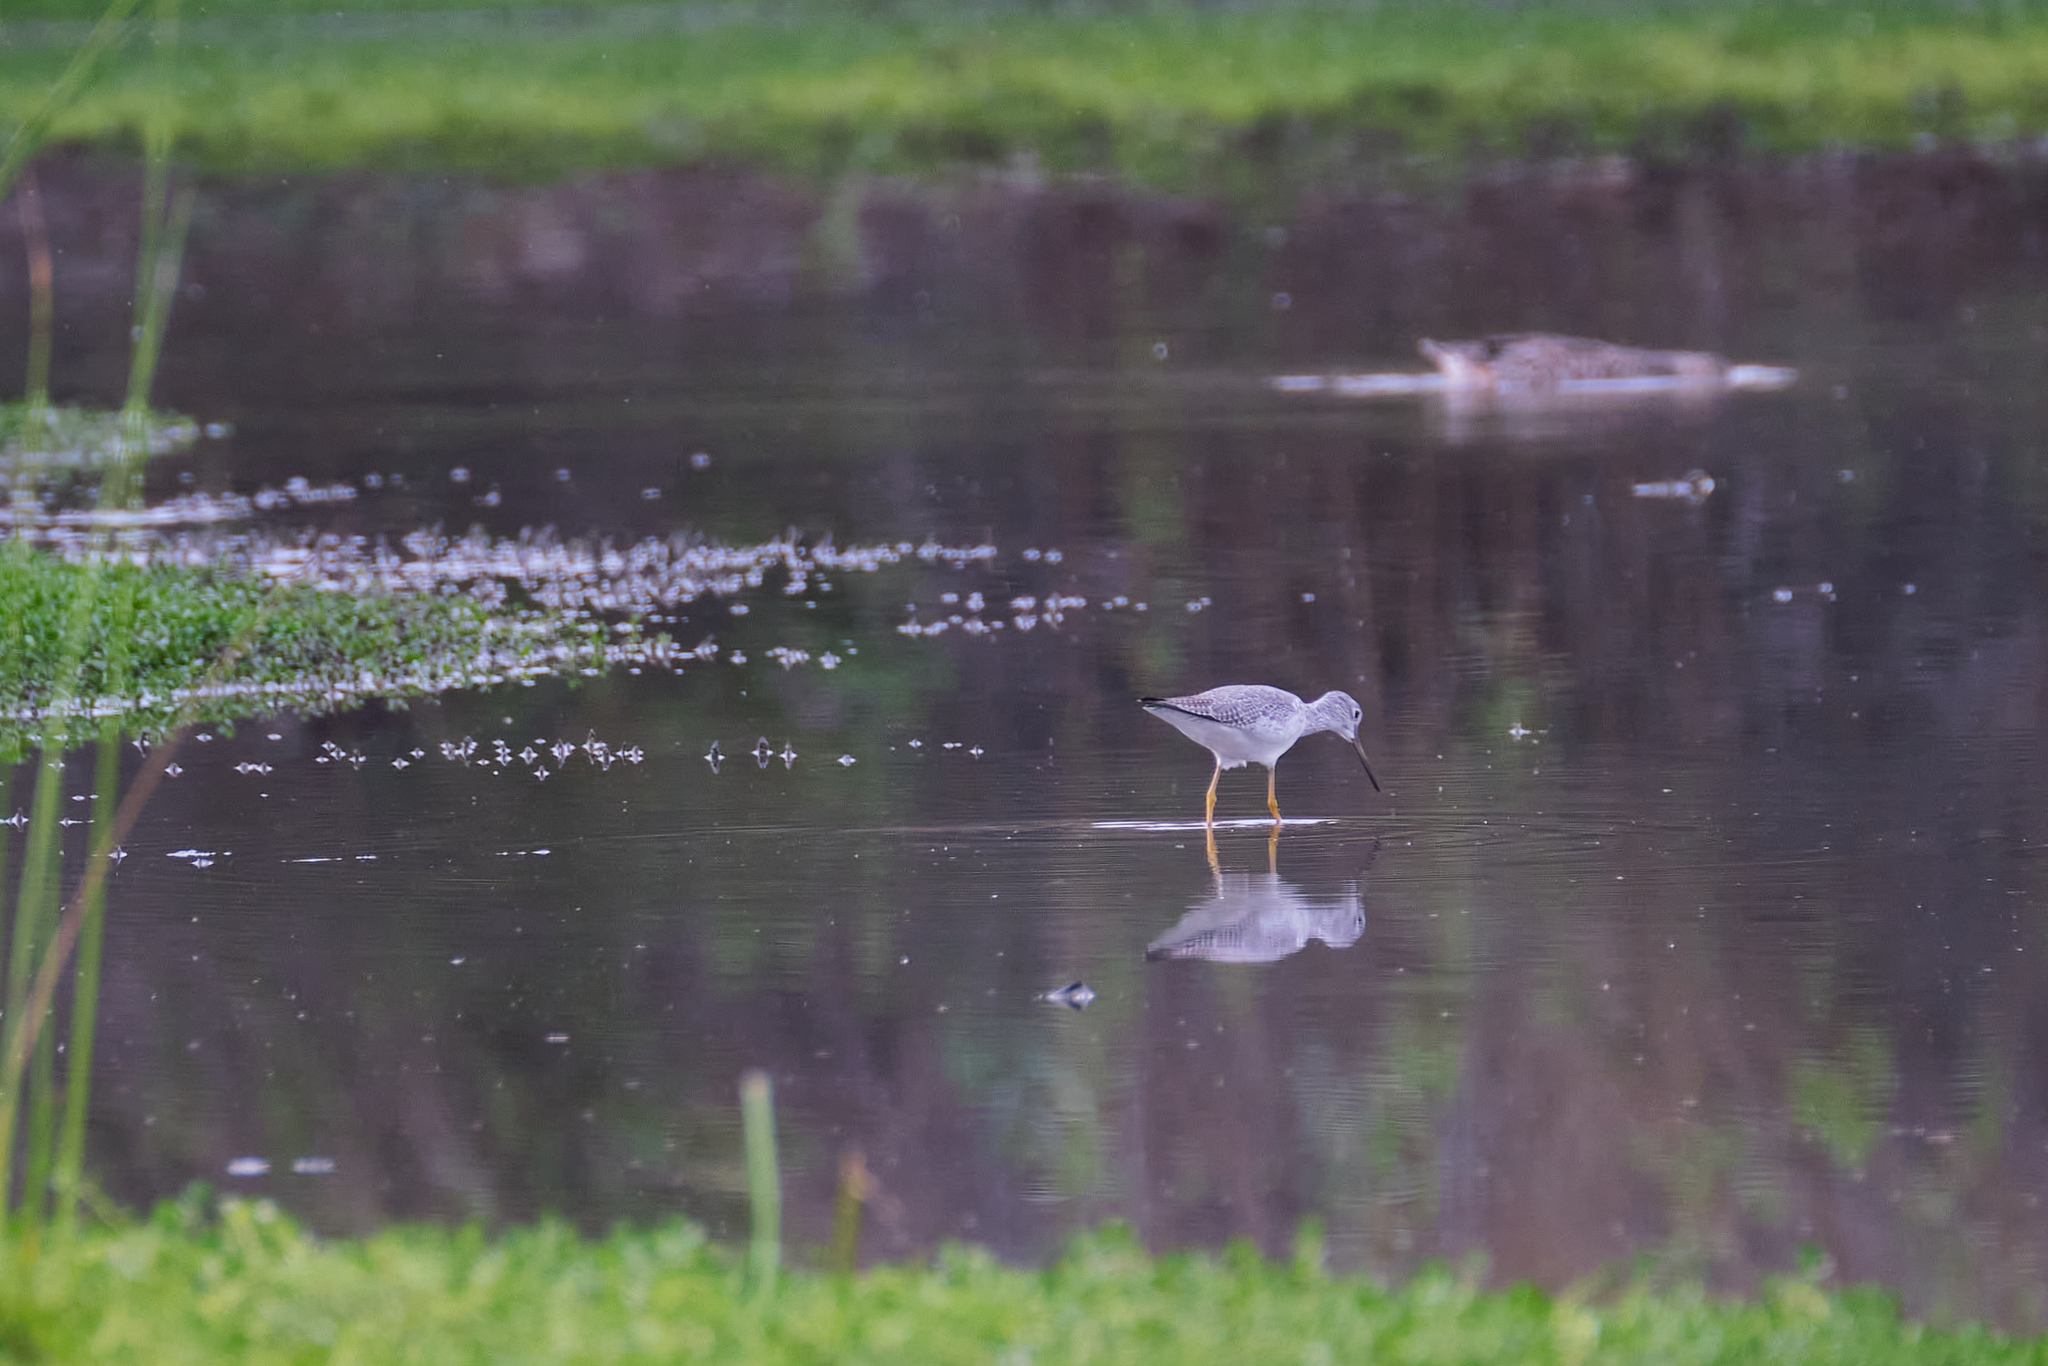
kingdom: Animalia
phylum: Chordata
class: Aves
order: Charadriiformes
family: Scolopacidae
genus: Tringa
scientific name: Tringa melanoleuca
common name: Greater yellowlegs
